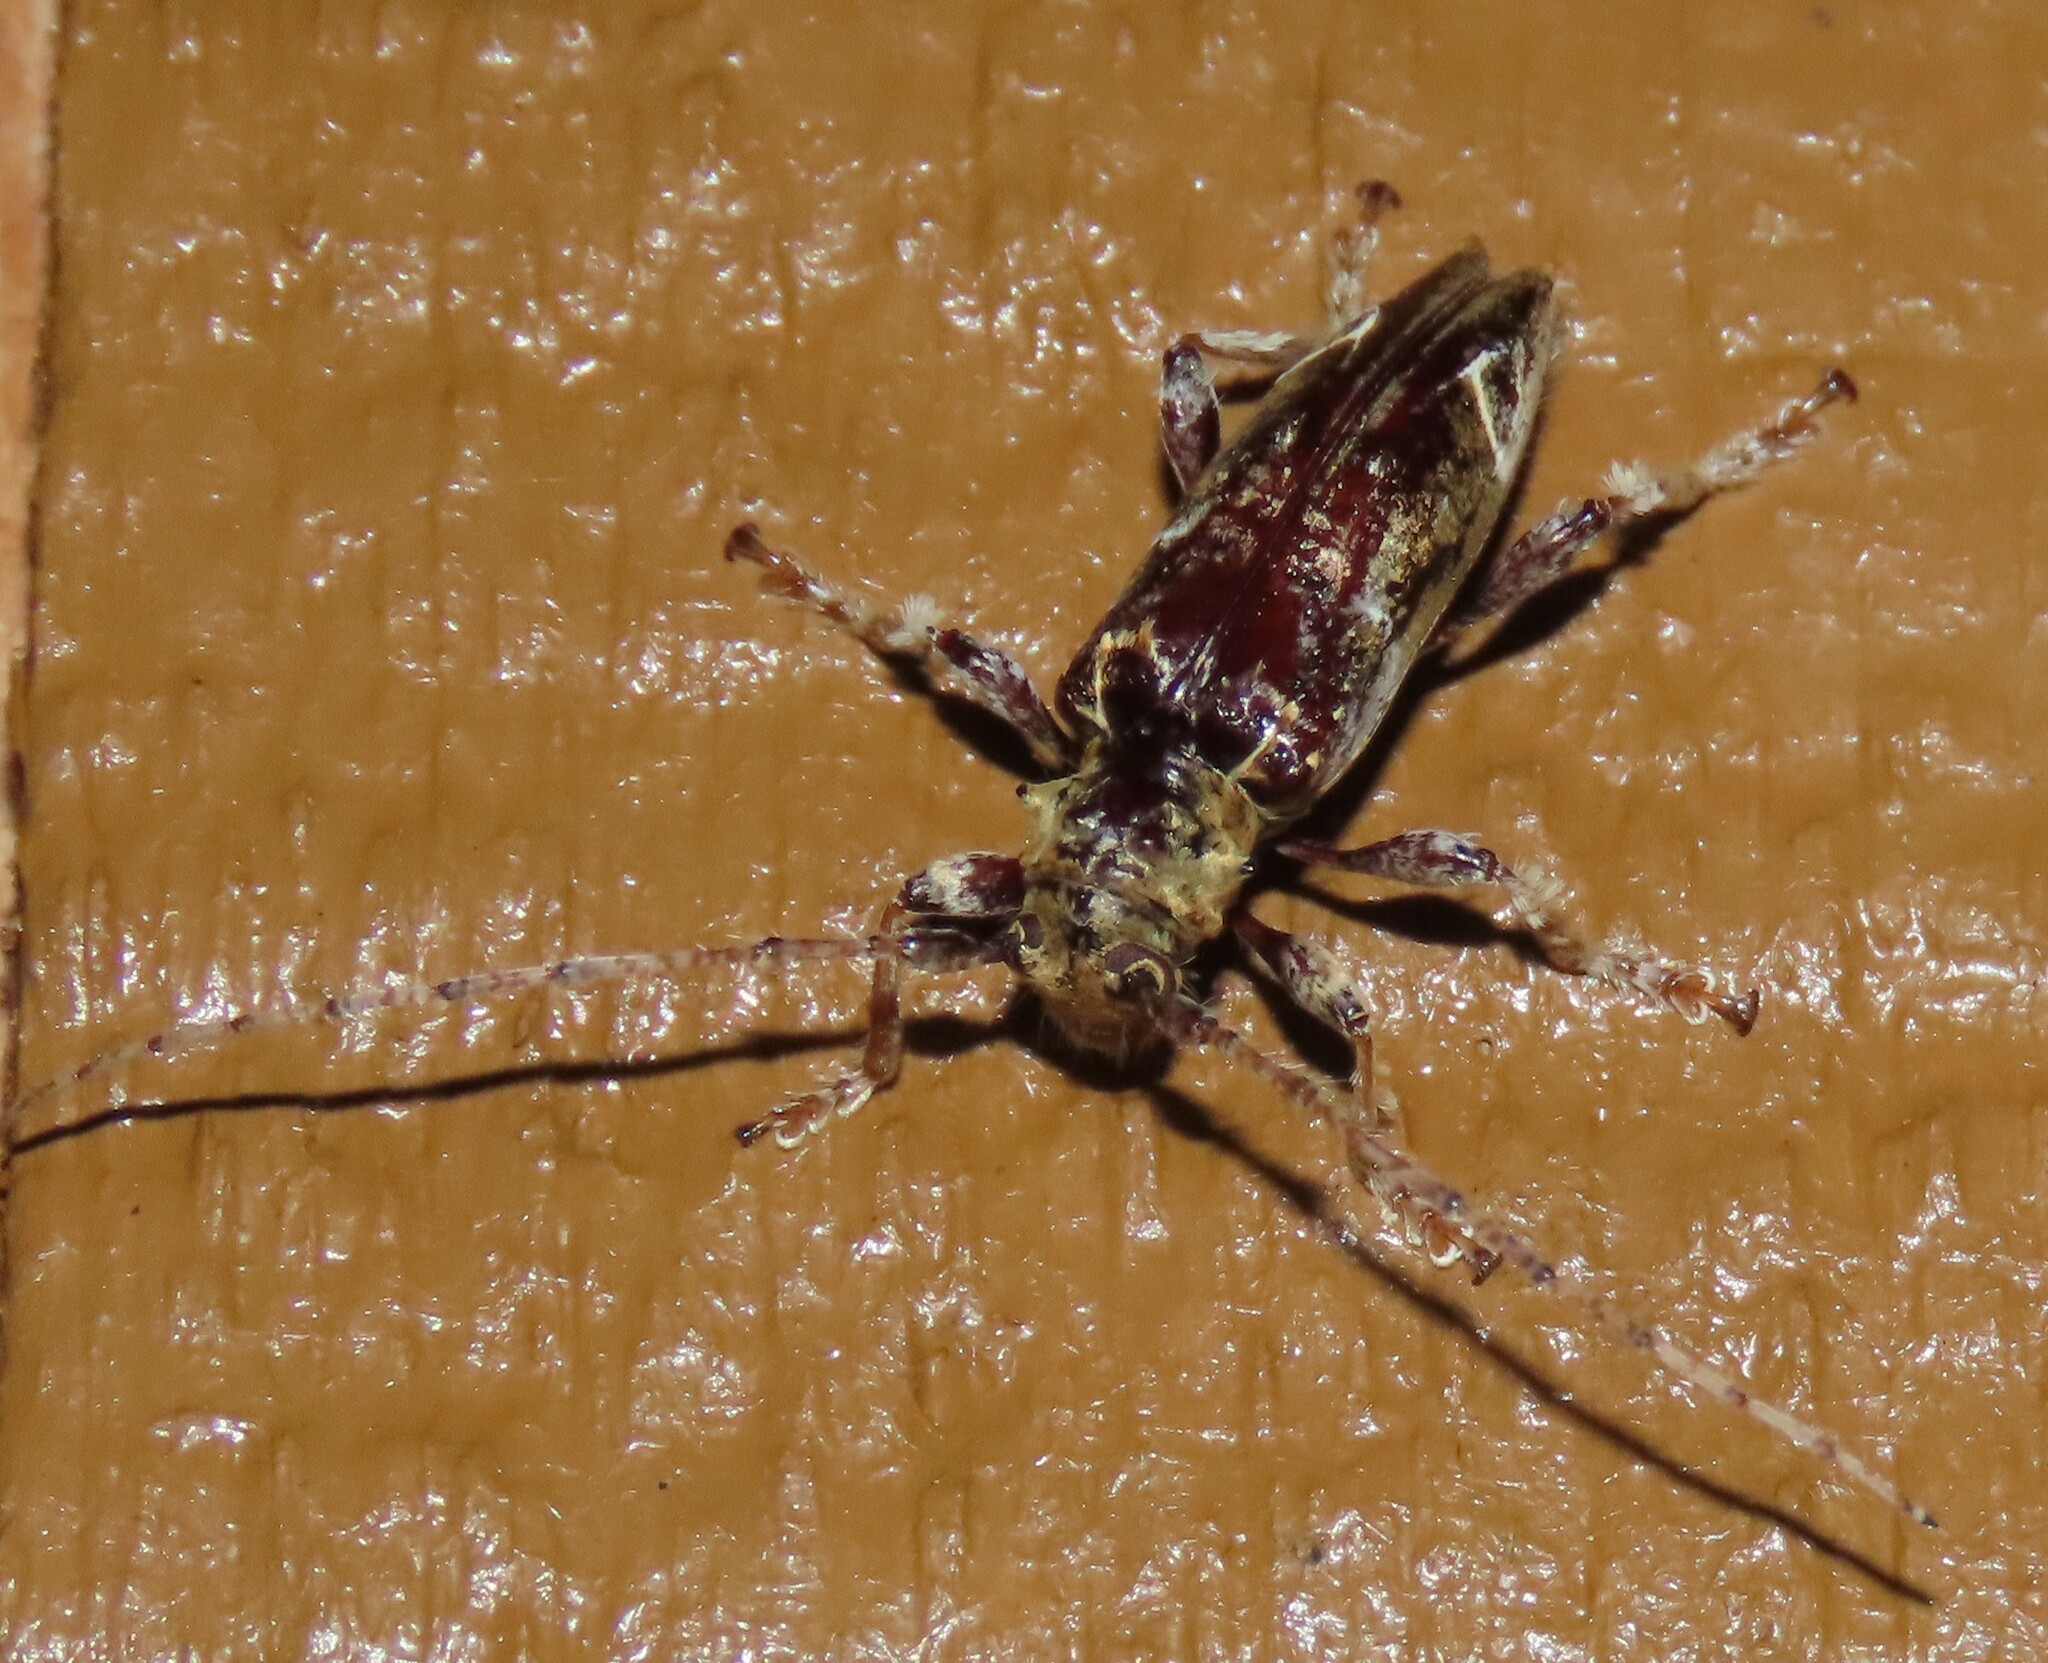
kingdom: Animalia
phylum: Arthropoda
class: Insecta
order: Coleoptera
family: Cerambycidae
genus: Tetrorea
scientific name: Tetrorea cilipes
